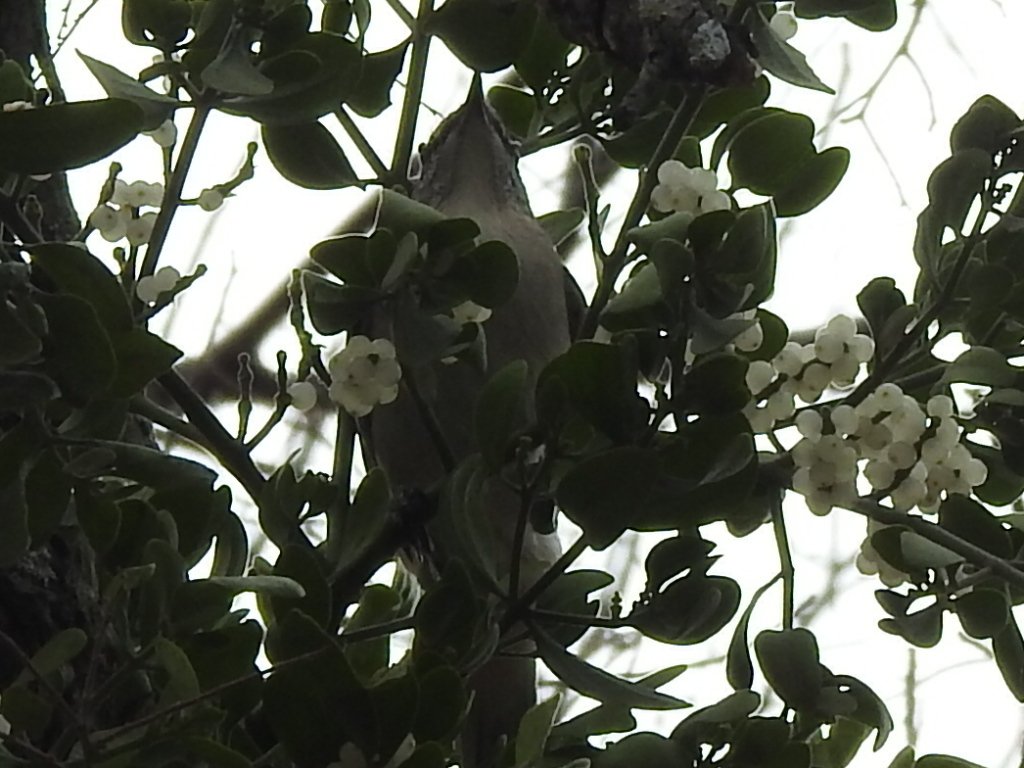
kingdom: Animalia
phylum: Chordata
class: Aves
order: Passeriformes
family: Mimidae
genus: Mimus
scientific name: Mimus polyglottos
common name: Northern mockingbird
